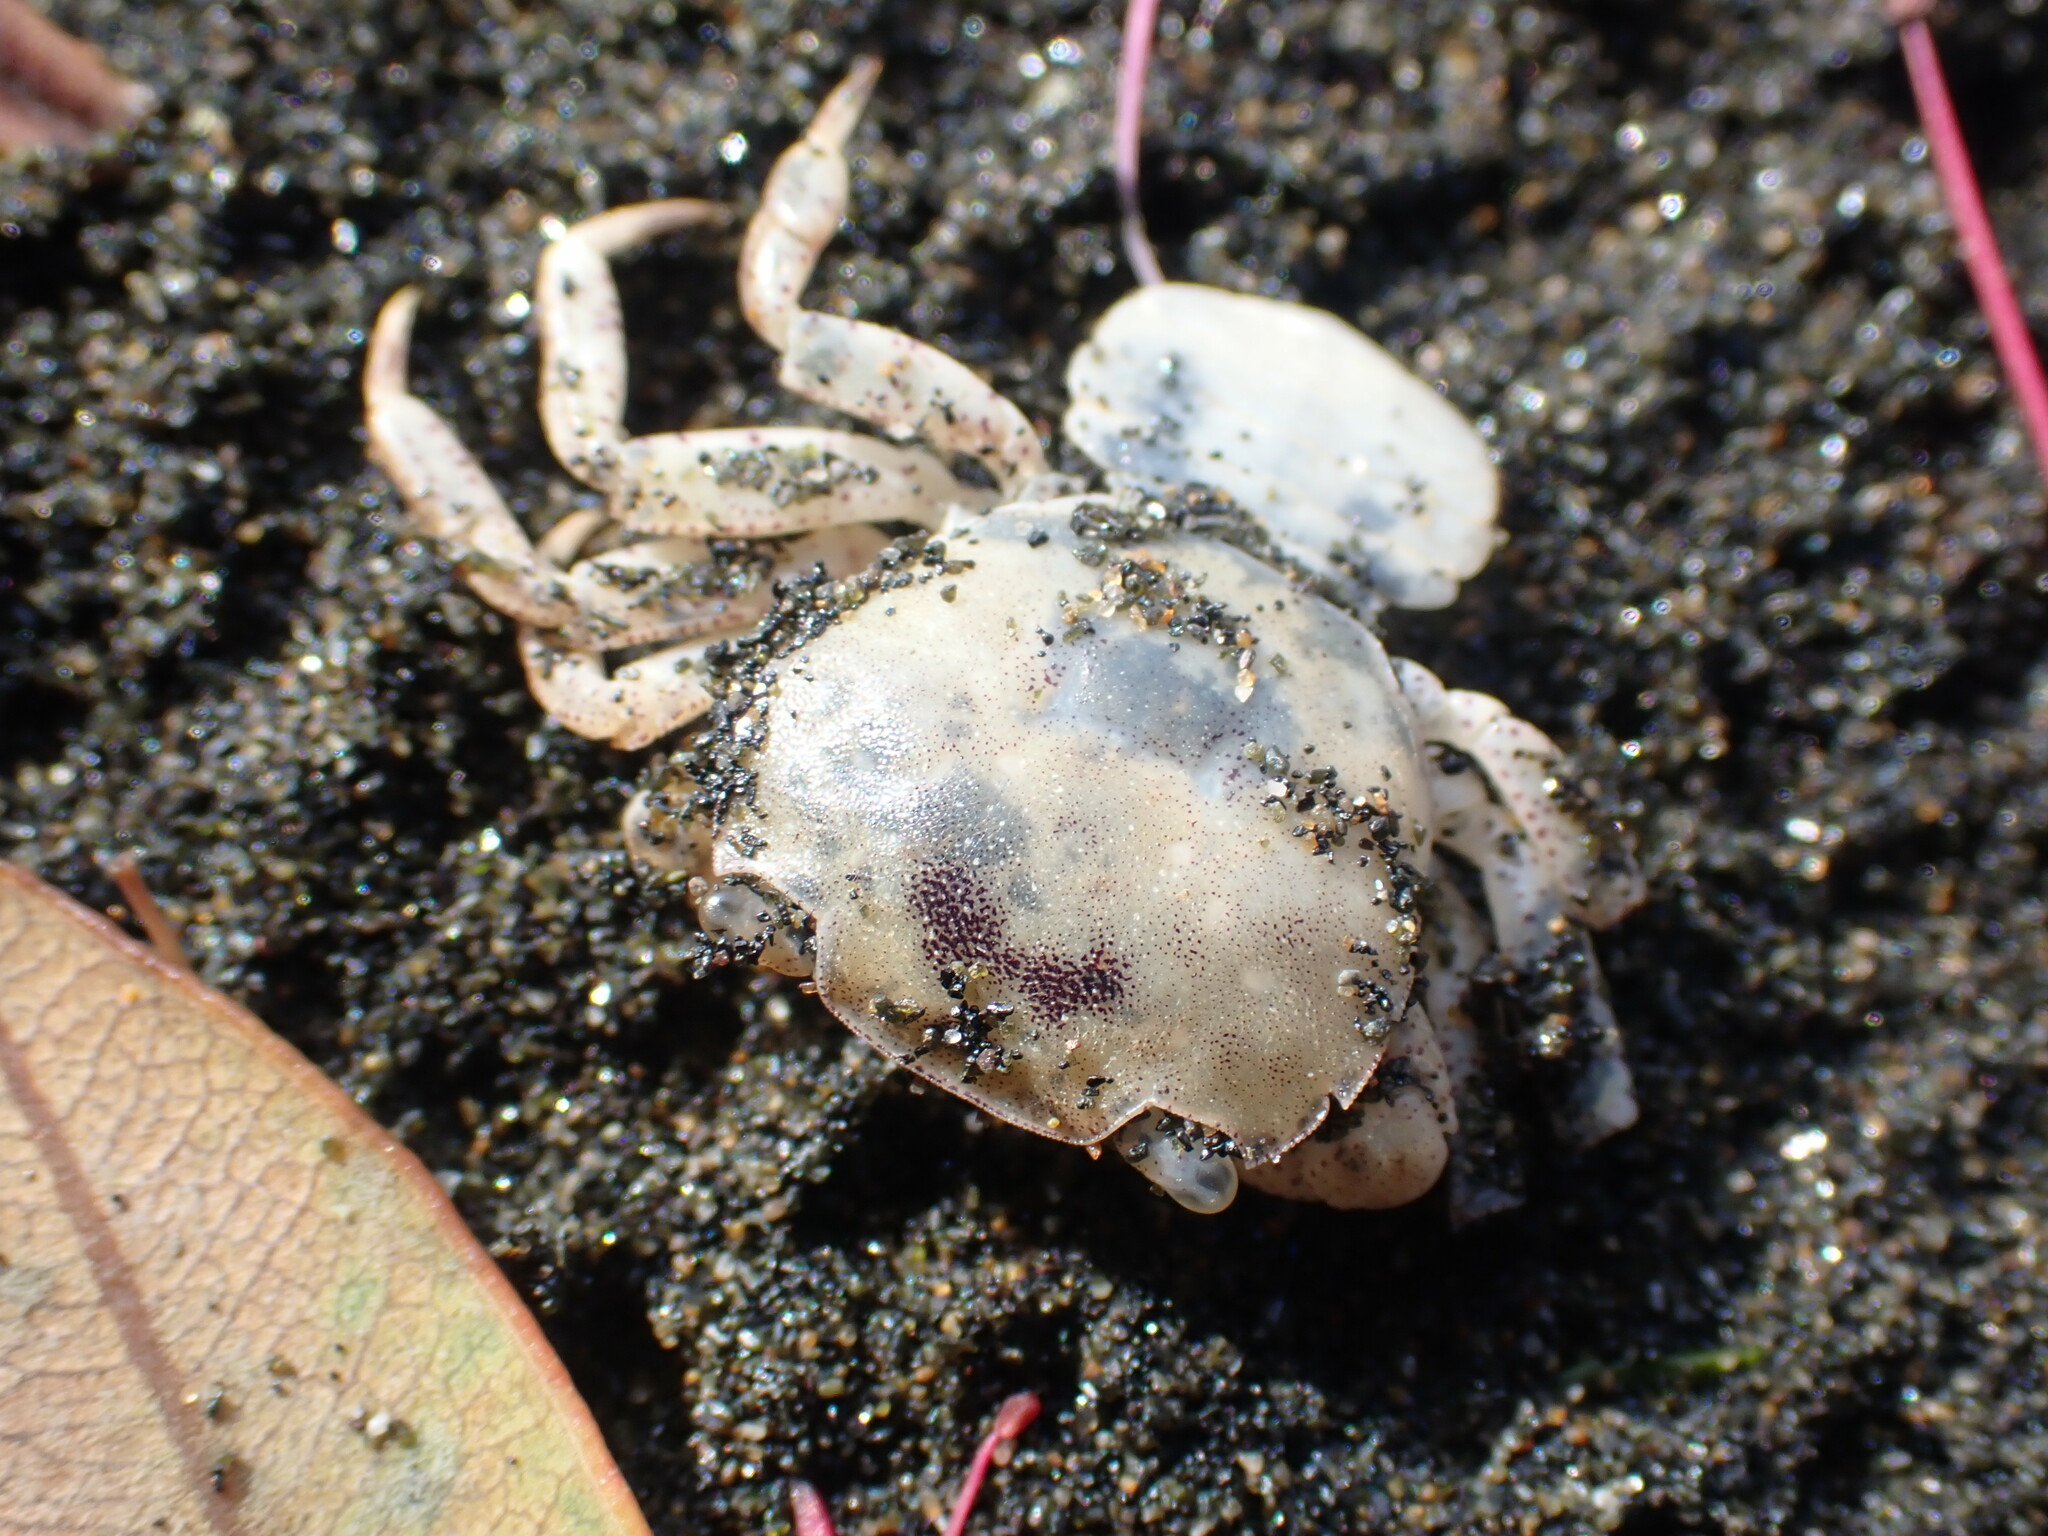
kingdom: Animalia
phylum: Arthropoda
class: Malacostraca
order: Decapoda
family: Varunidae
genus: Hemigrapsus
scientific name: Hemigrapsus crenulatus
